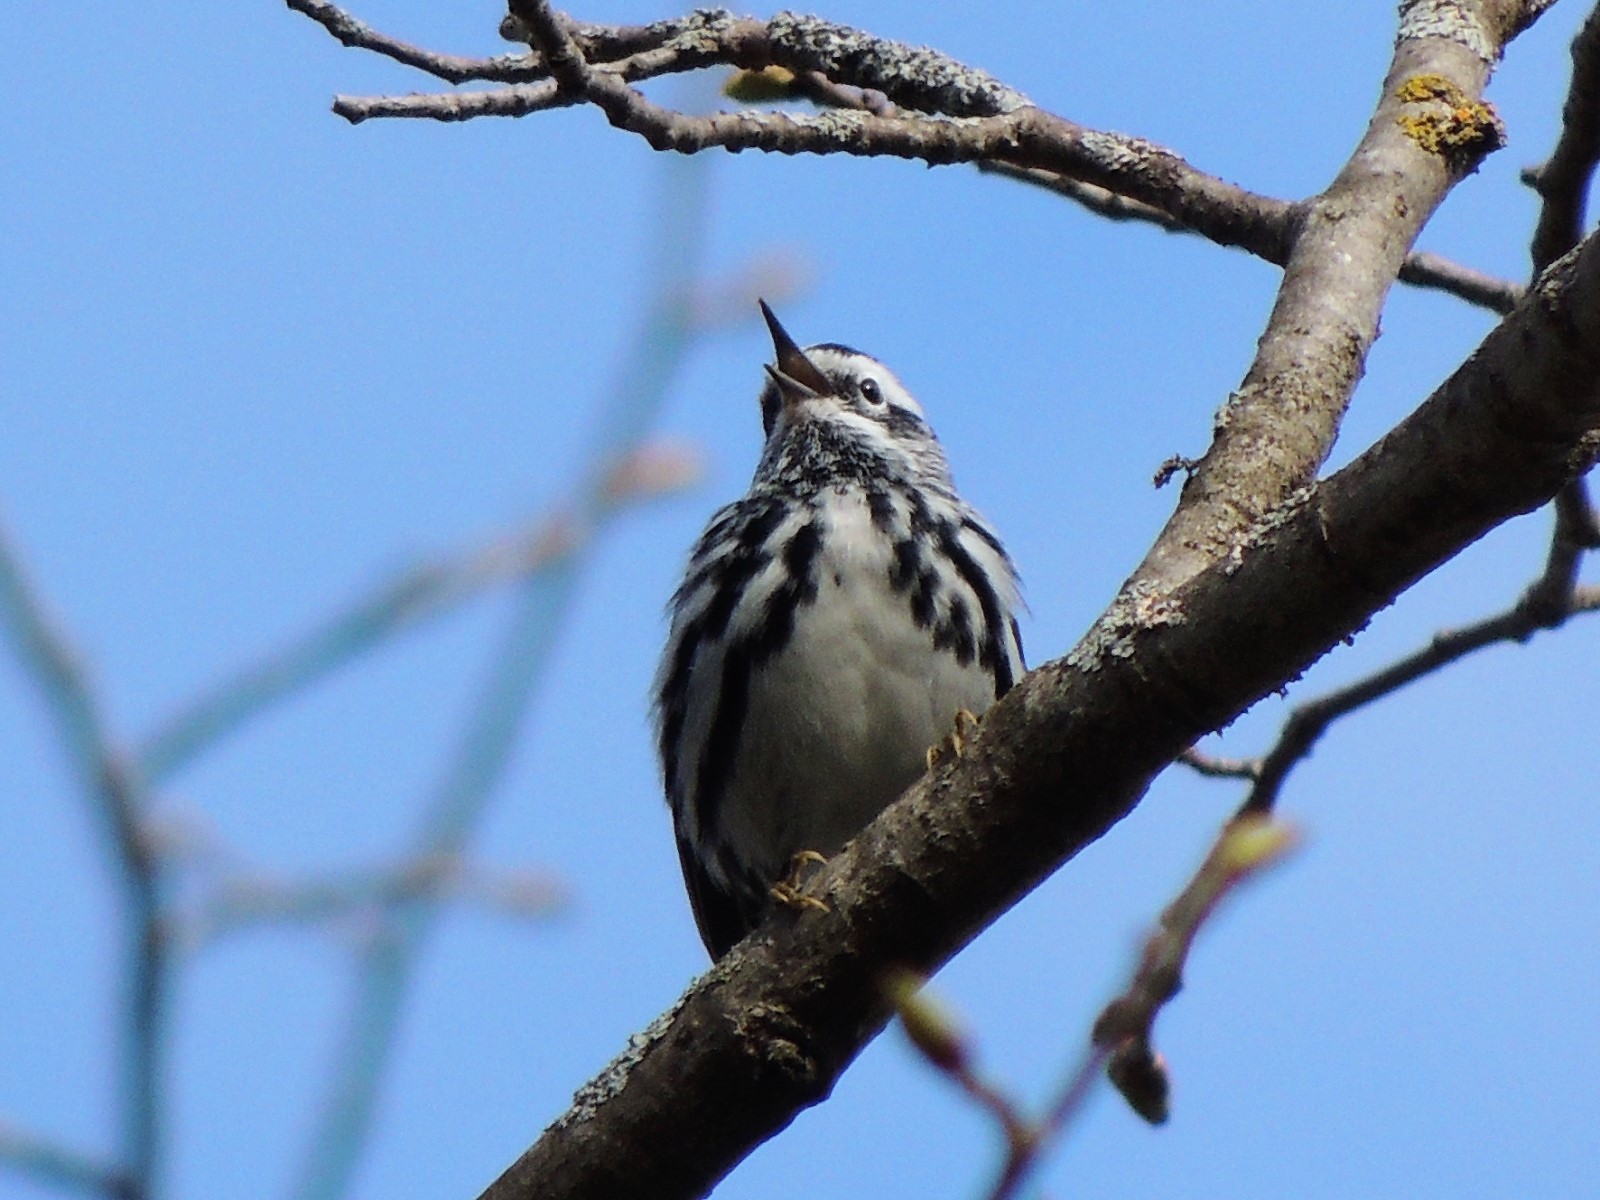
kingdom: Animalia
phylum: Chordata
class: Aves
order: Passeriformes
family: Parulidae
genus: Mniotilta
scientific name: Mniotilta varia
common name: Black-and-white warbler
